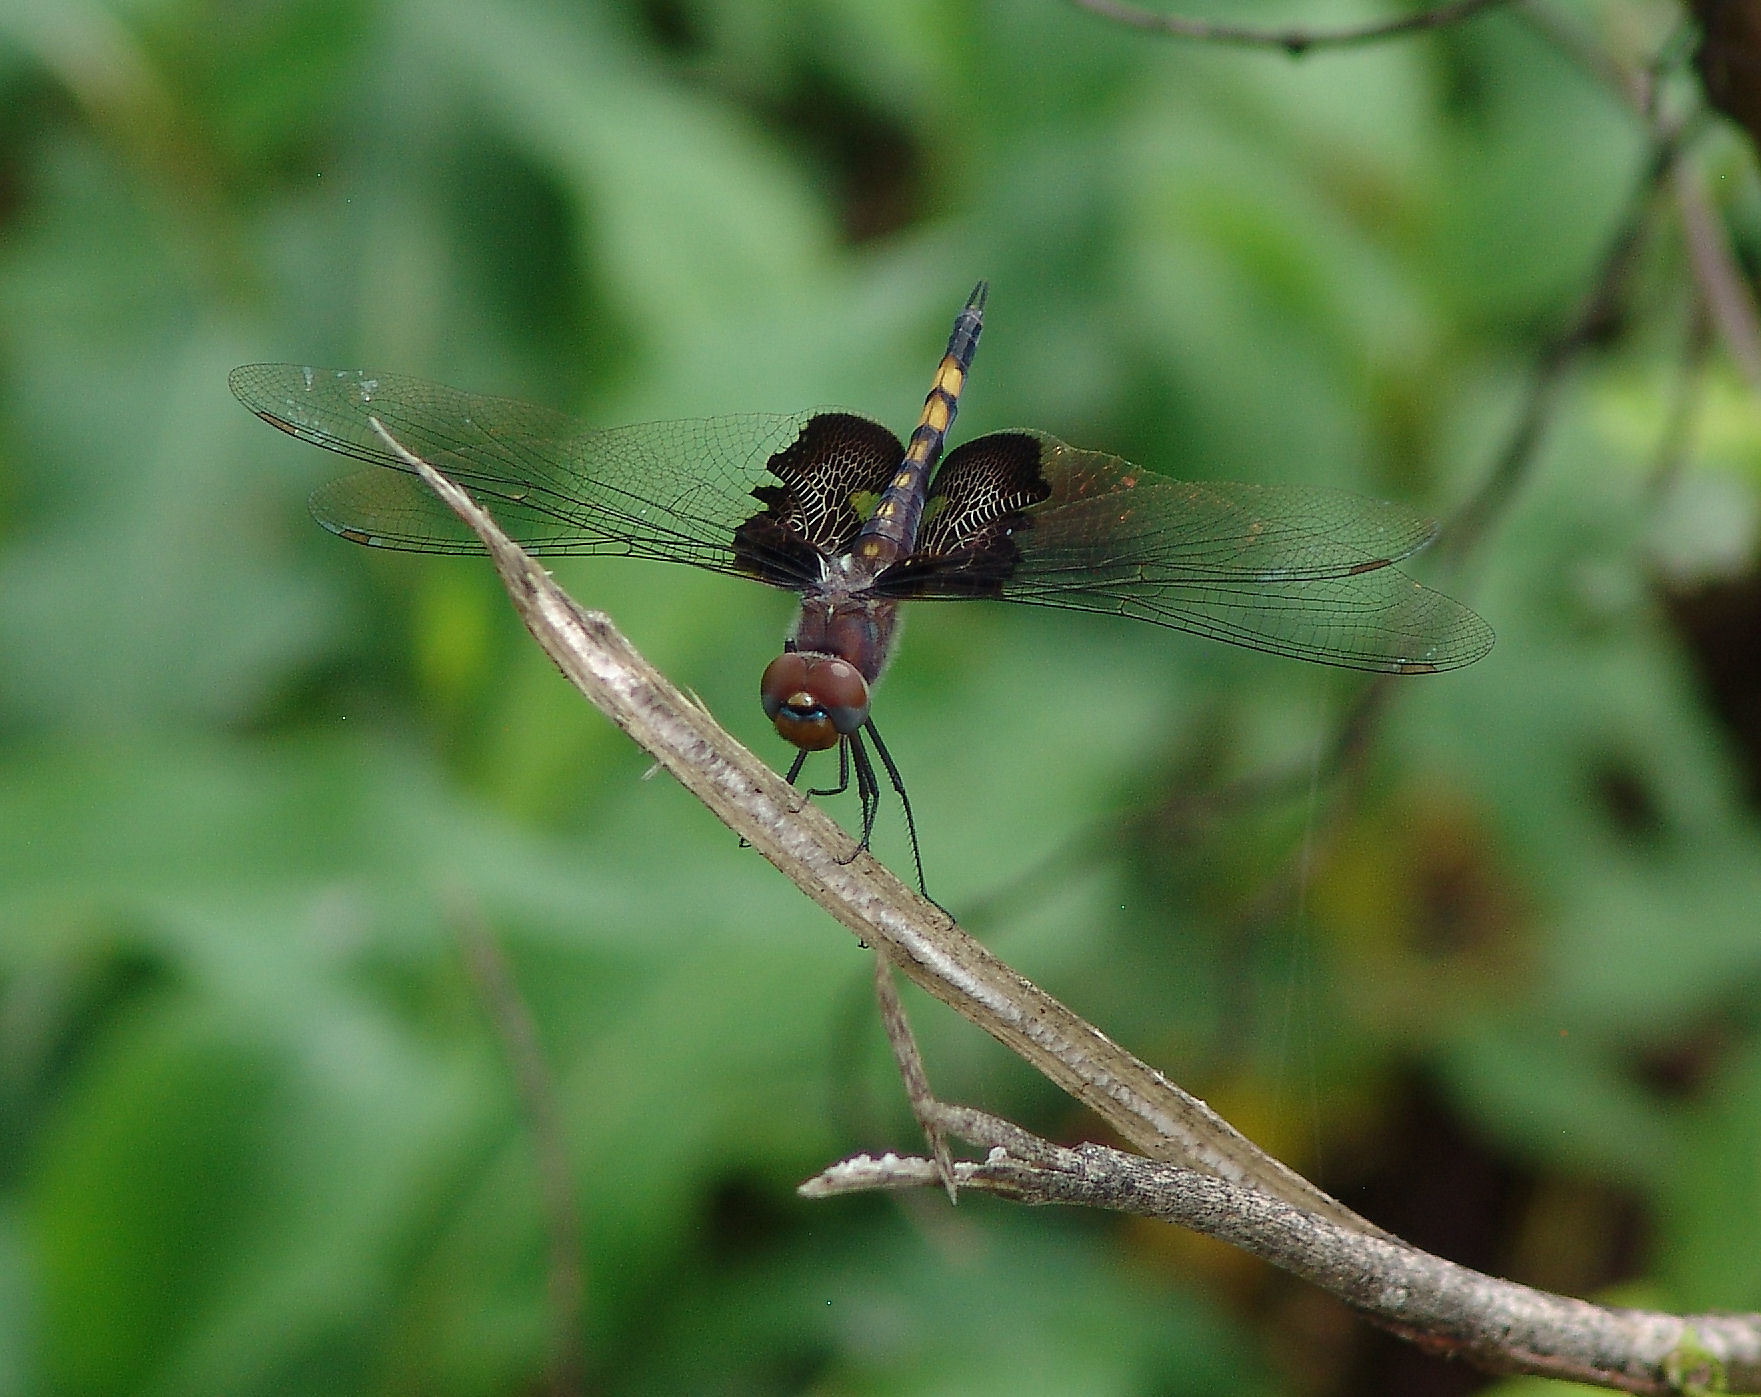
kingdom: Animalia
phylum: Arthropoda
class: Insecta
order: Odonata
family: Libellulidae
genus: Tramea
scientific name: Tramea lacerata
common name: Black saddlebags
